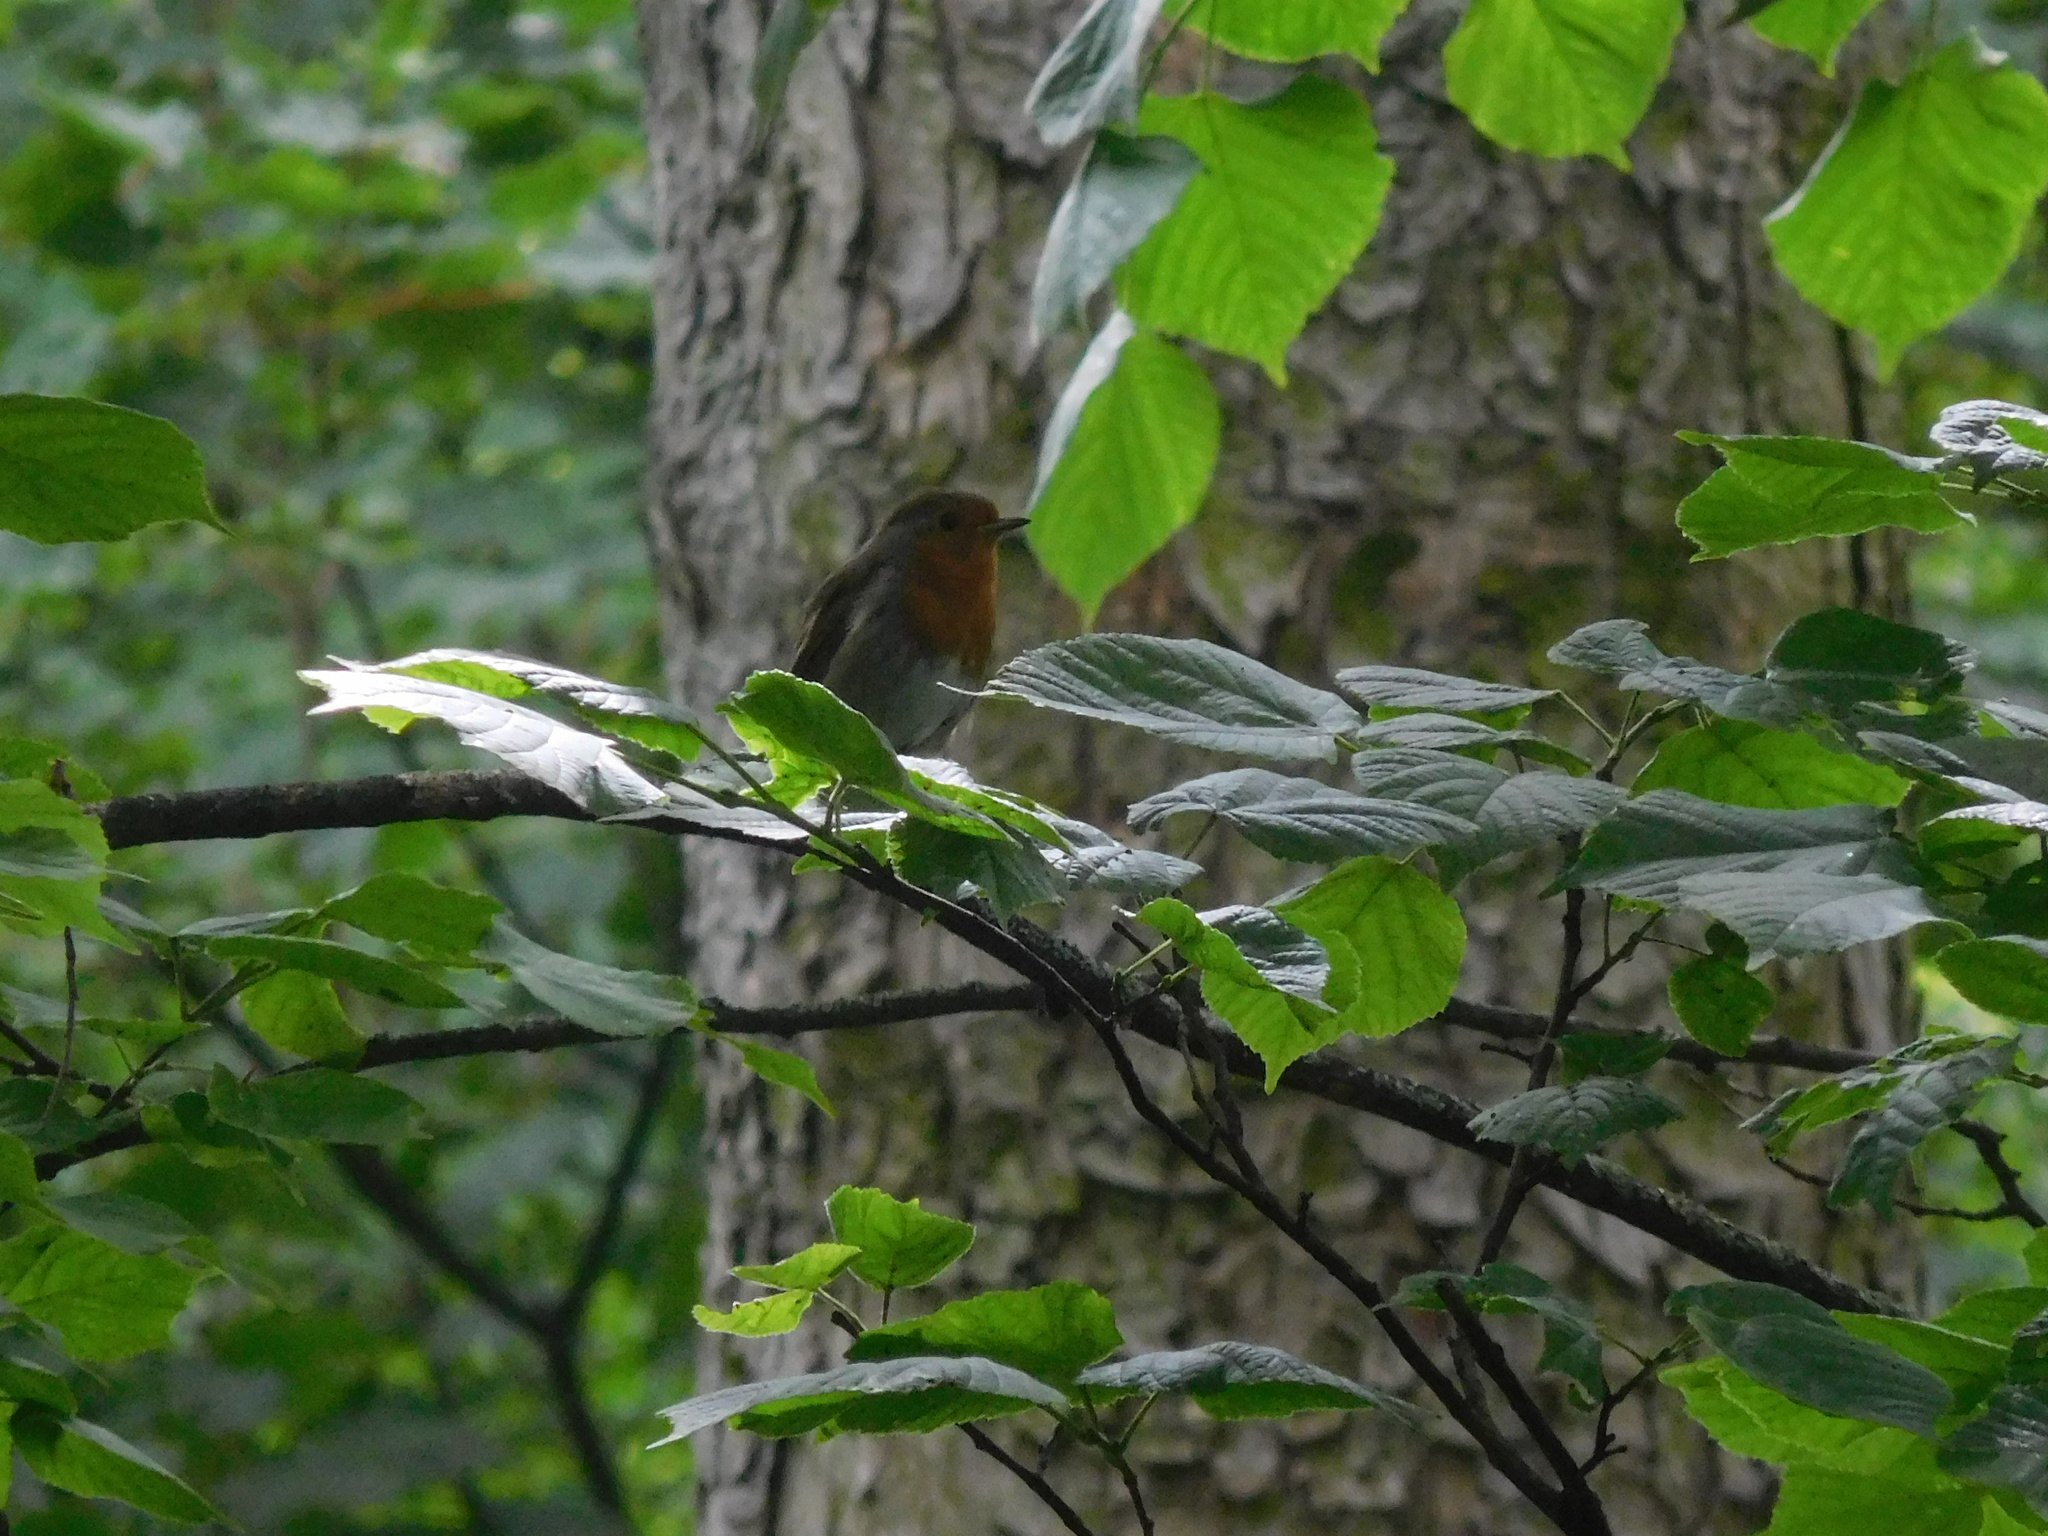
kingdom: Animalia
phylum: Chordata
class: Aves
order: Passeriformes
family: Muscicapidae
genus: Erithacus
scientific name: Erithacus rubecula
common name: European robin
